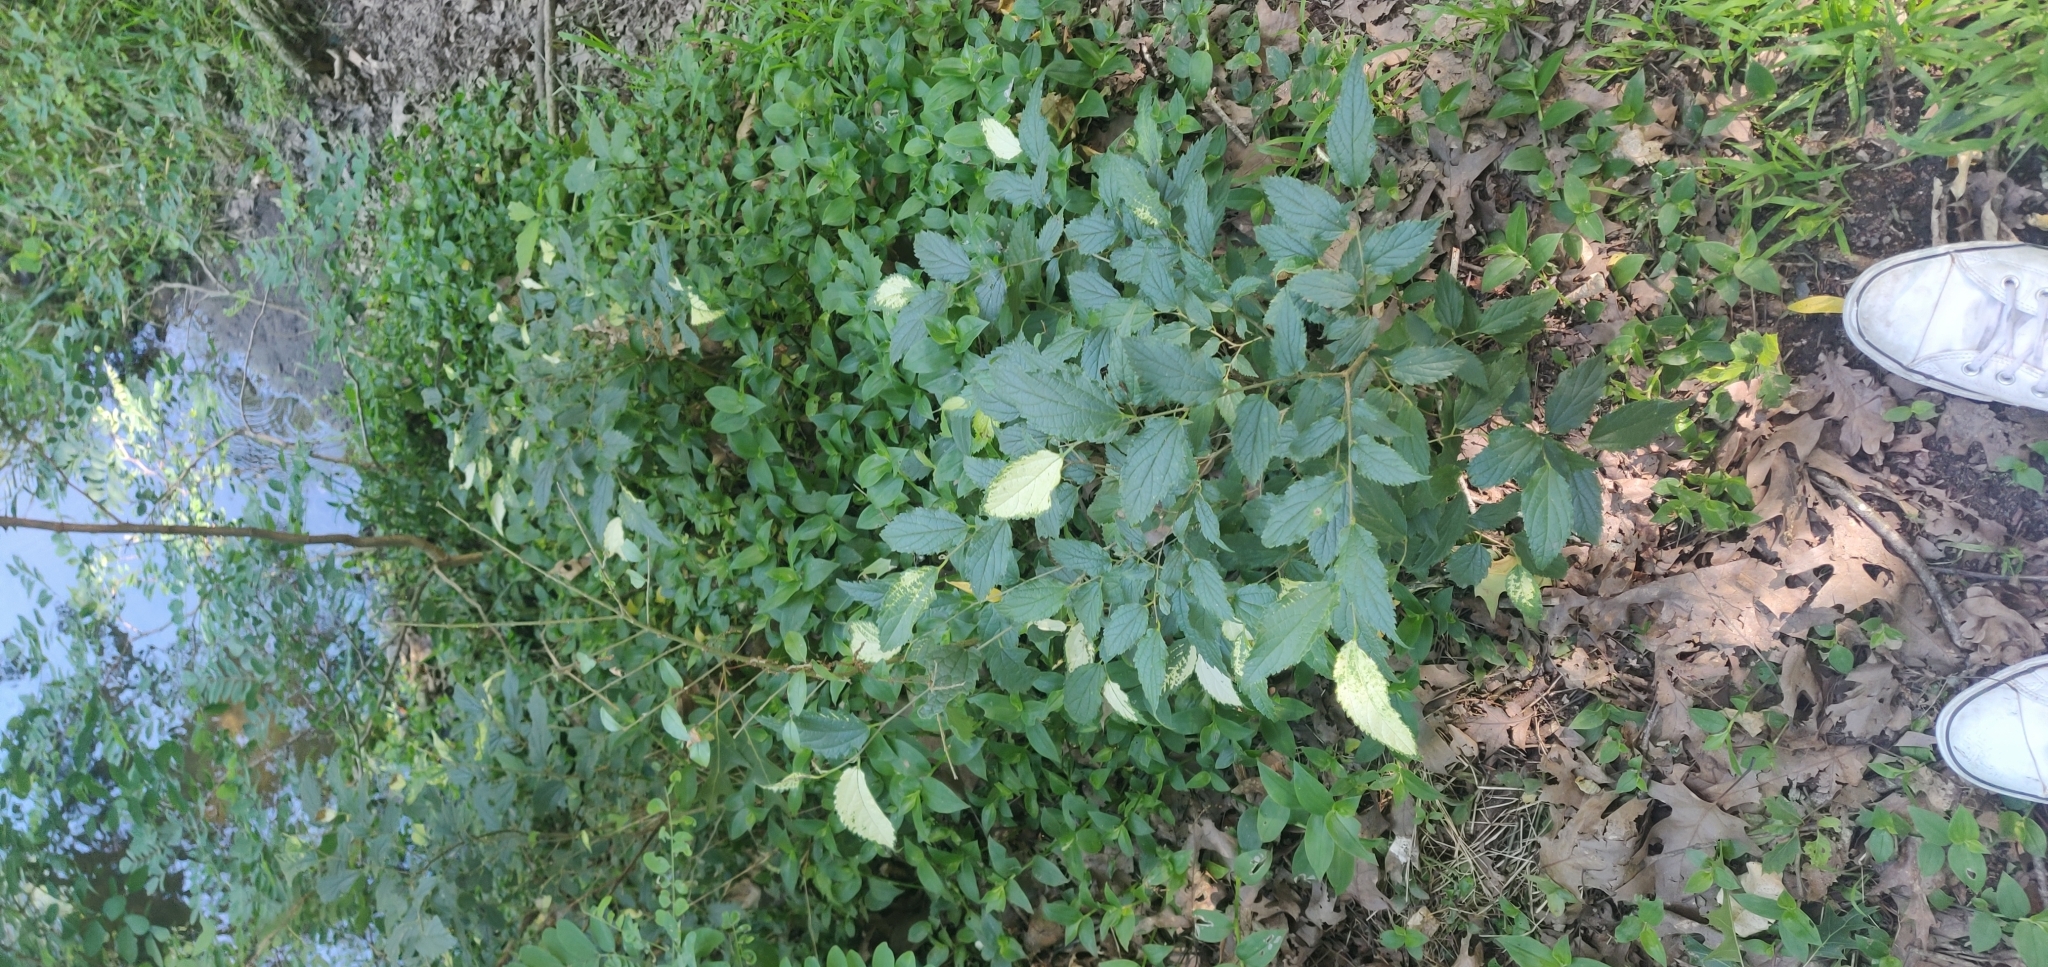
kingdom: Plantae
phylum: Tracheophyta
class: Magnoliopsida
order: Rosales
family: Cannabaceae
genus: Celtis
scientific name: Celtis australis
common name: European hackberry
